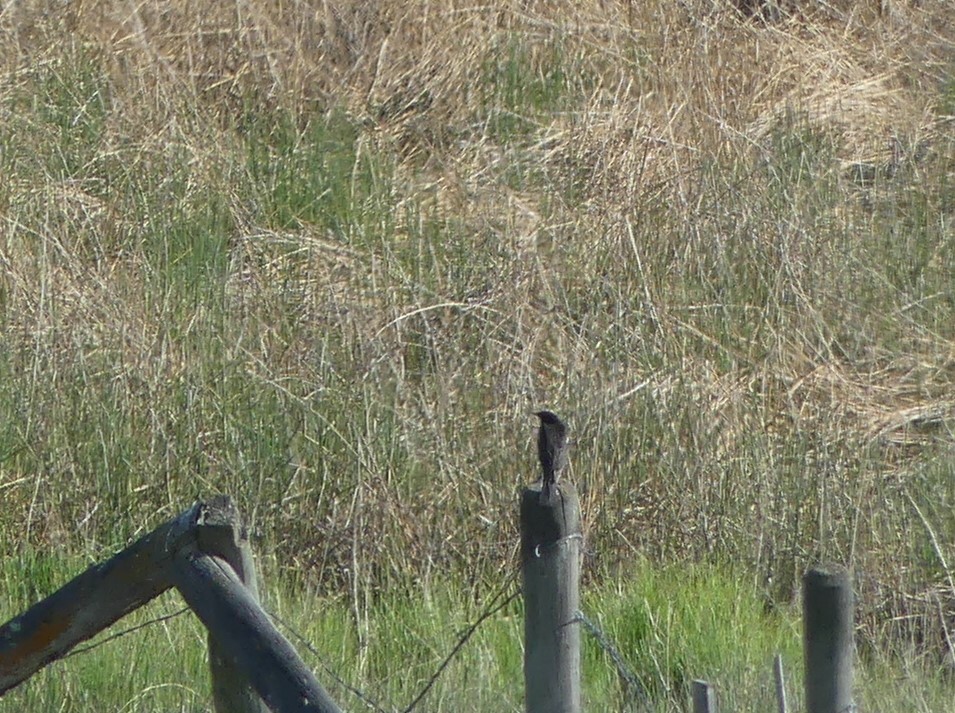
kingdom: Animalia
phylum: Chordata
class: Aves
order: Passeriformes
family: Icteridae
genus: Agelaius
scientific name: Agelaius phoeniceus
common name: Red-winged blackbird
